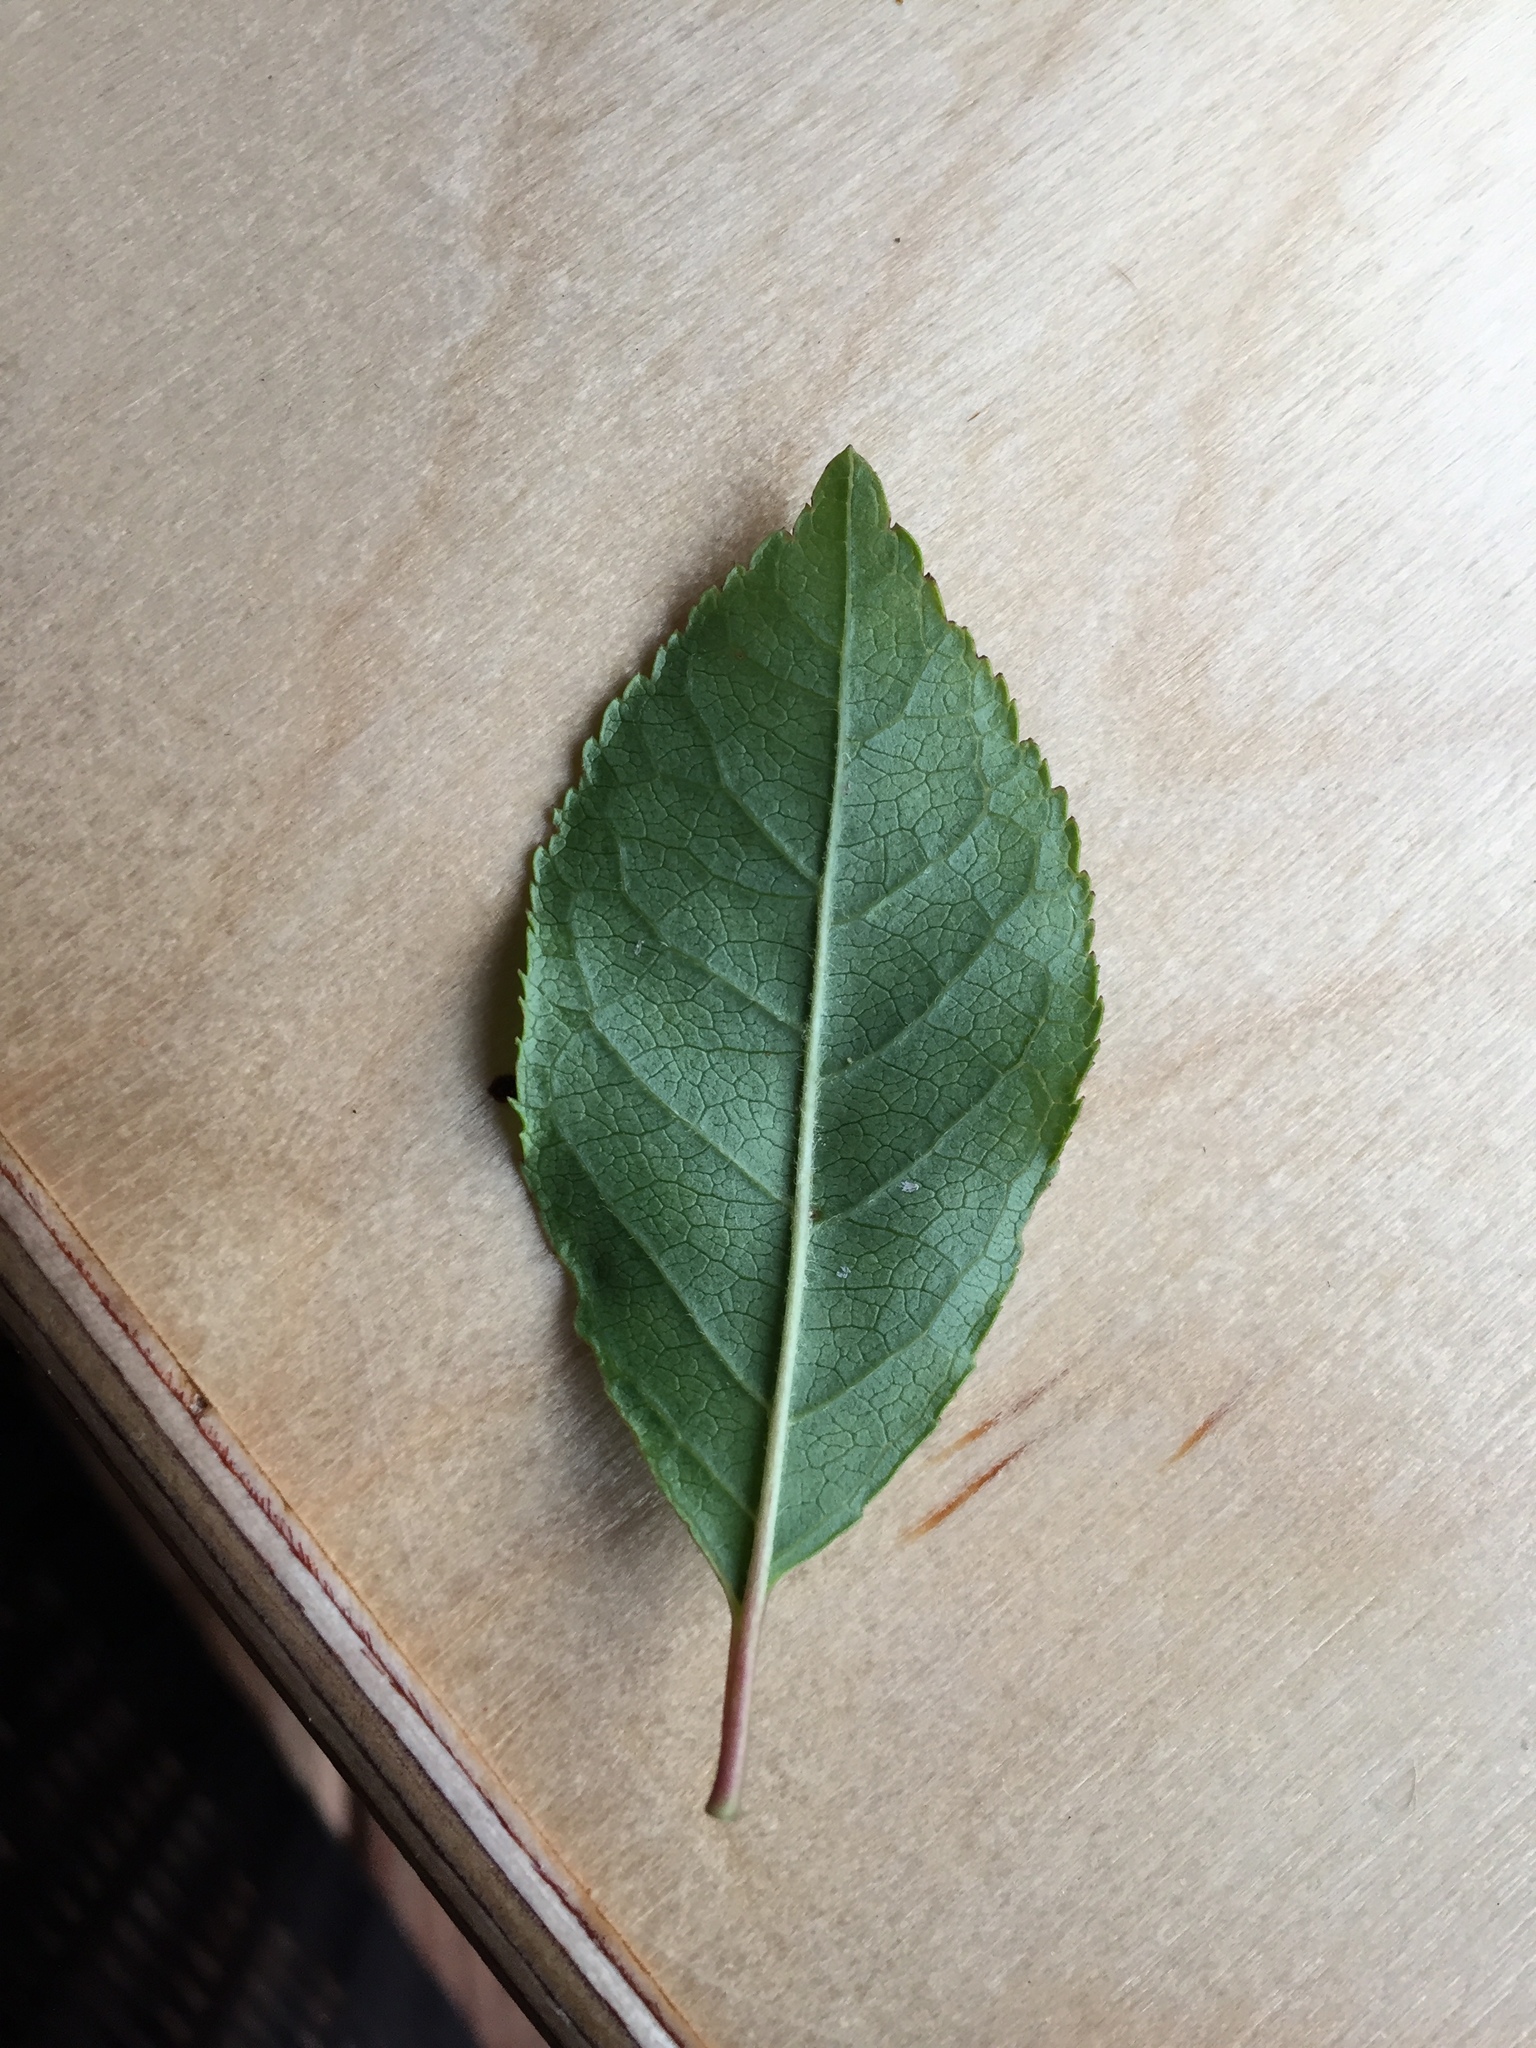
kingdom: Plantae
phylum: Tracheophyta
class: Magnoliopsida
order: Aquifoliales
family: Aquifoliaceae
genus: Ilex
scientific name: Ilex verticillata
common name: Virginia winterberry
